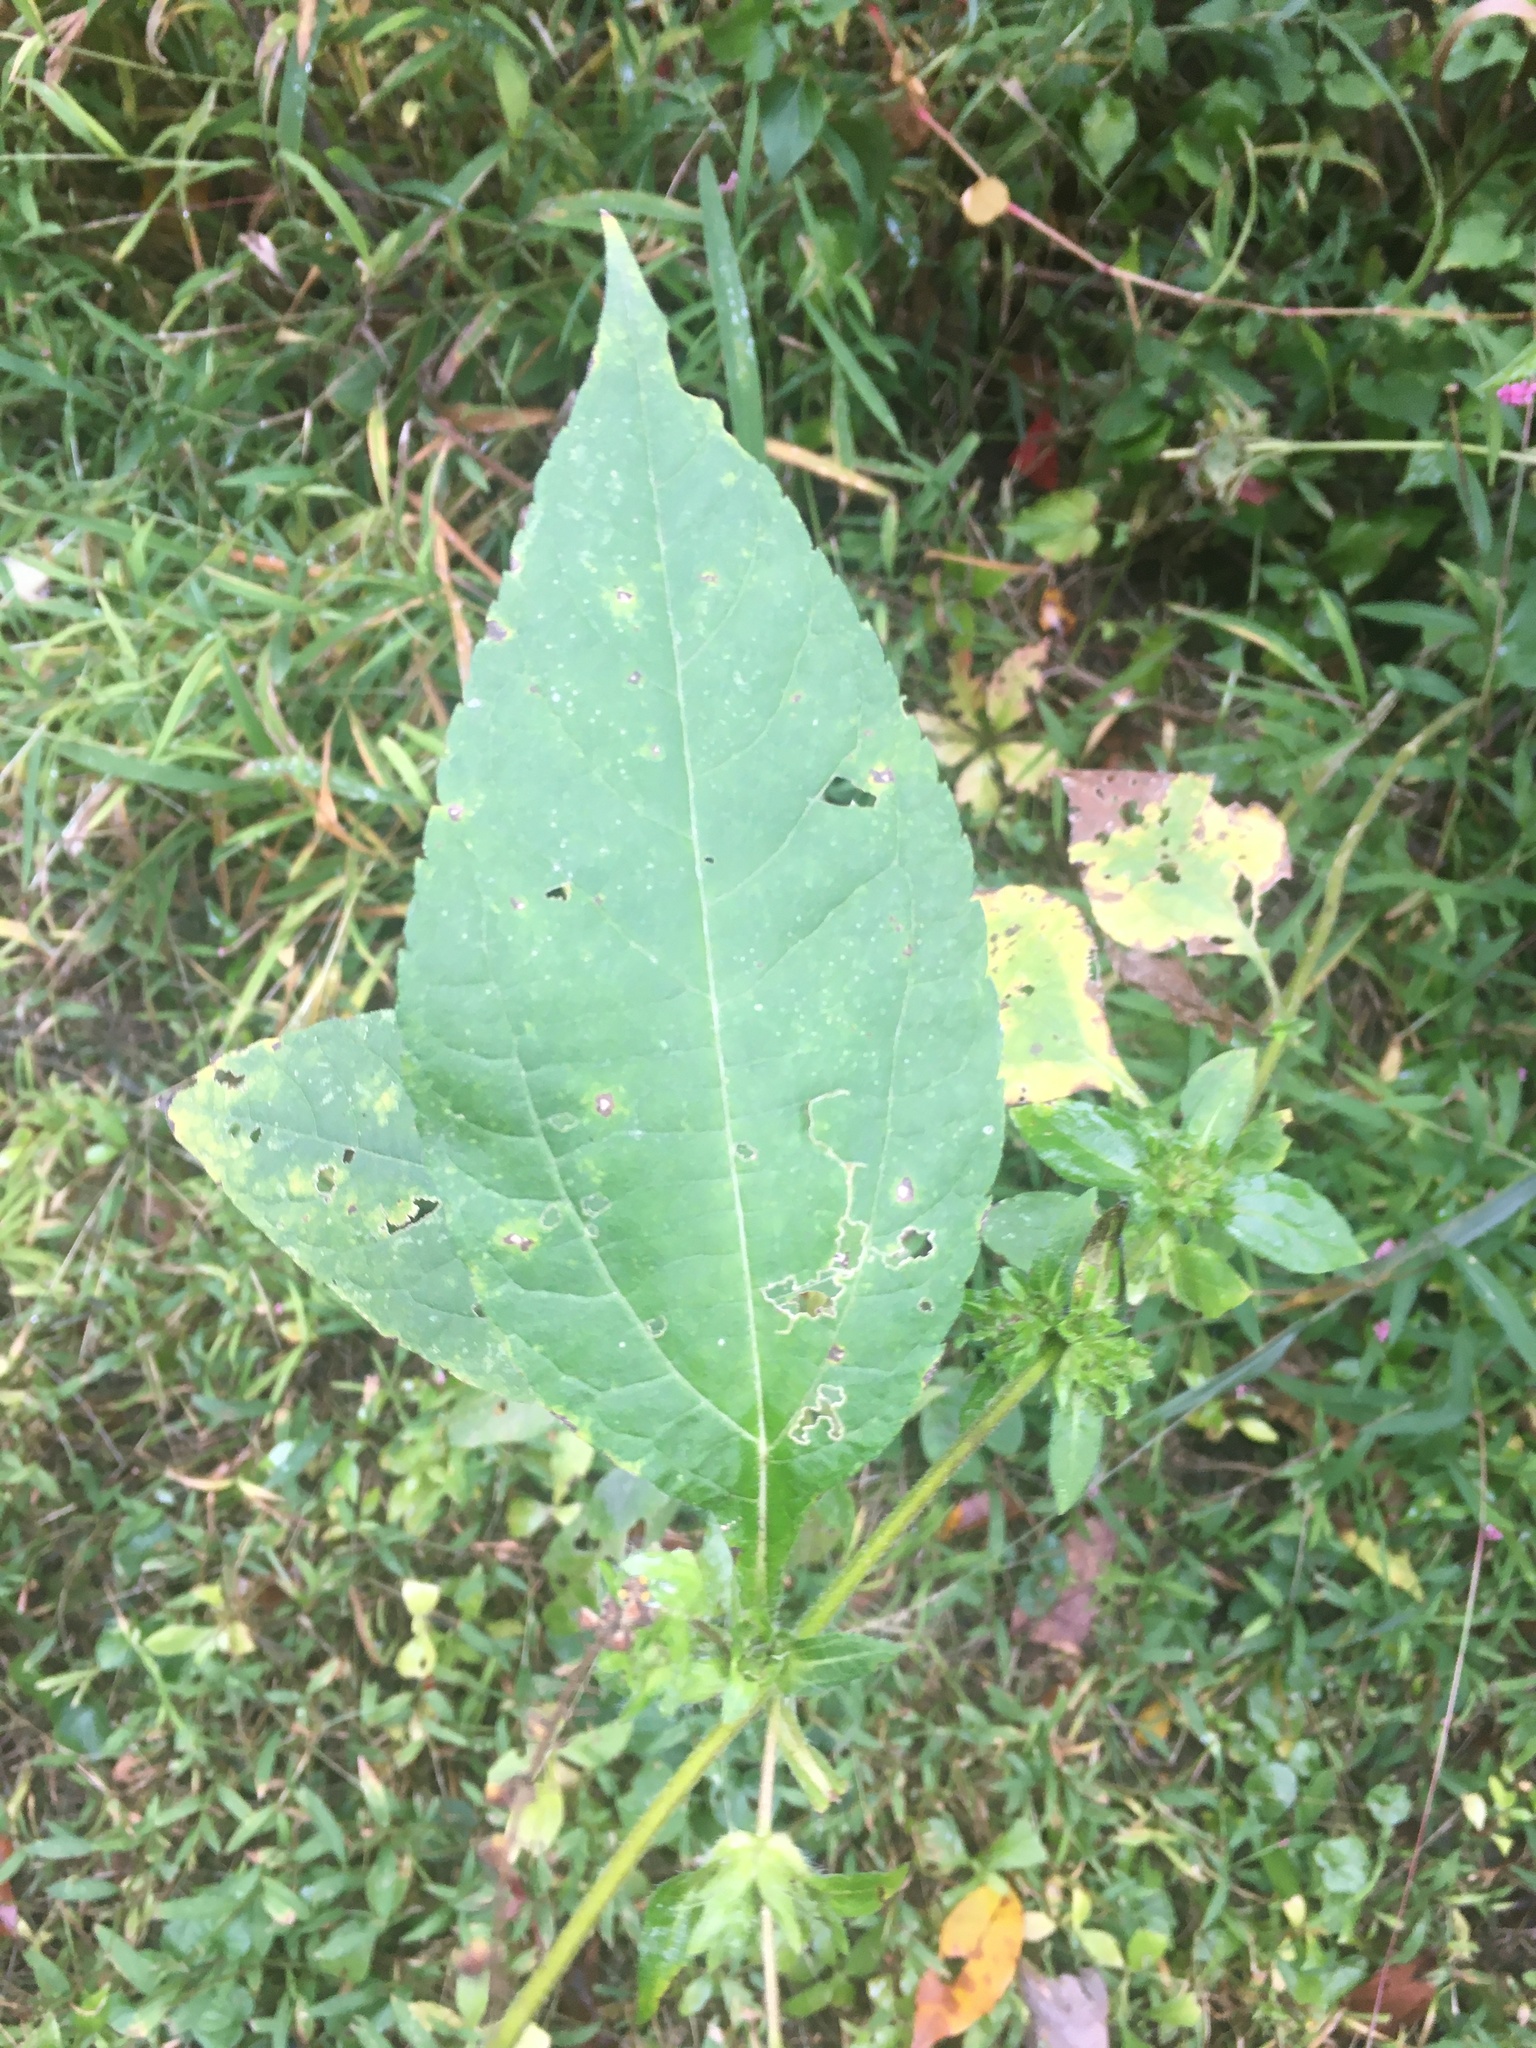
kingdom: Plantae
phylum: Tracheophyta
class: Magnoliopsida
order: Asterales
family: Asteraceae
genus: Ambrosia
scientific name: Ambrosia trifida
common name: Giant ragweed
